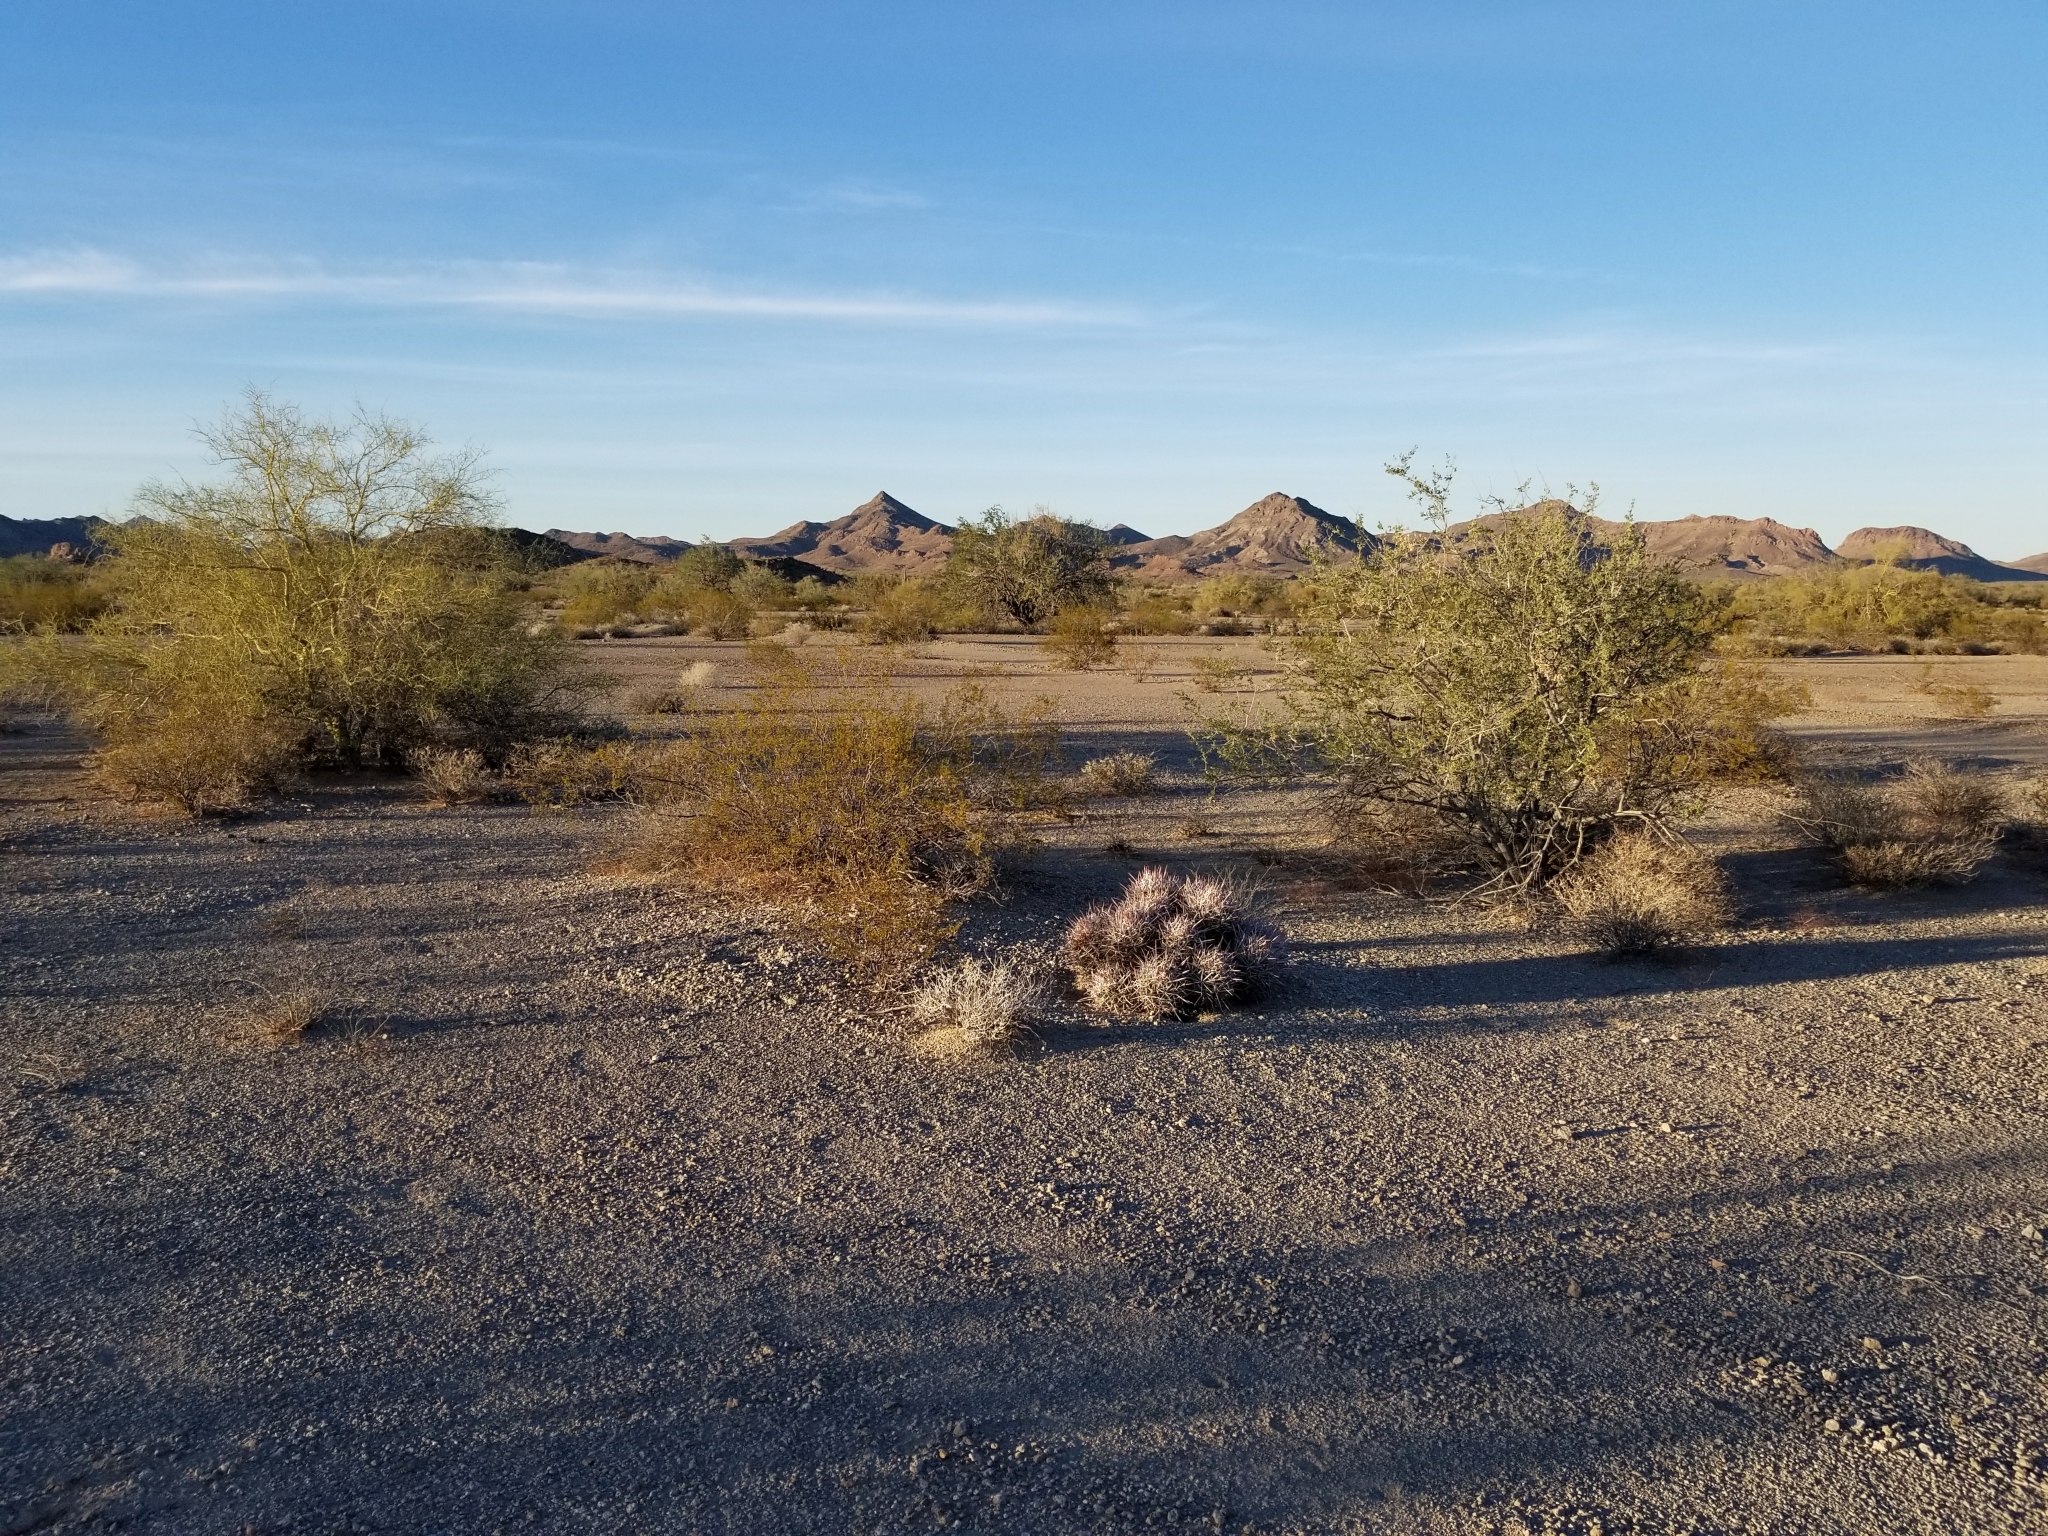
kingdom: Plantae
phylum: Tracheophyta
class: Magnoliopsida
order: Caryophyllales
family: Cactaceae
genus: Echinocactus
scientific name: Echinocactus polycephalus
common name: Cottontop cactus
